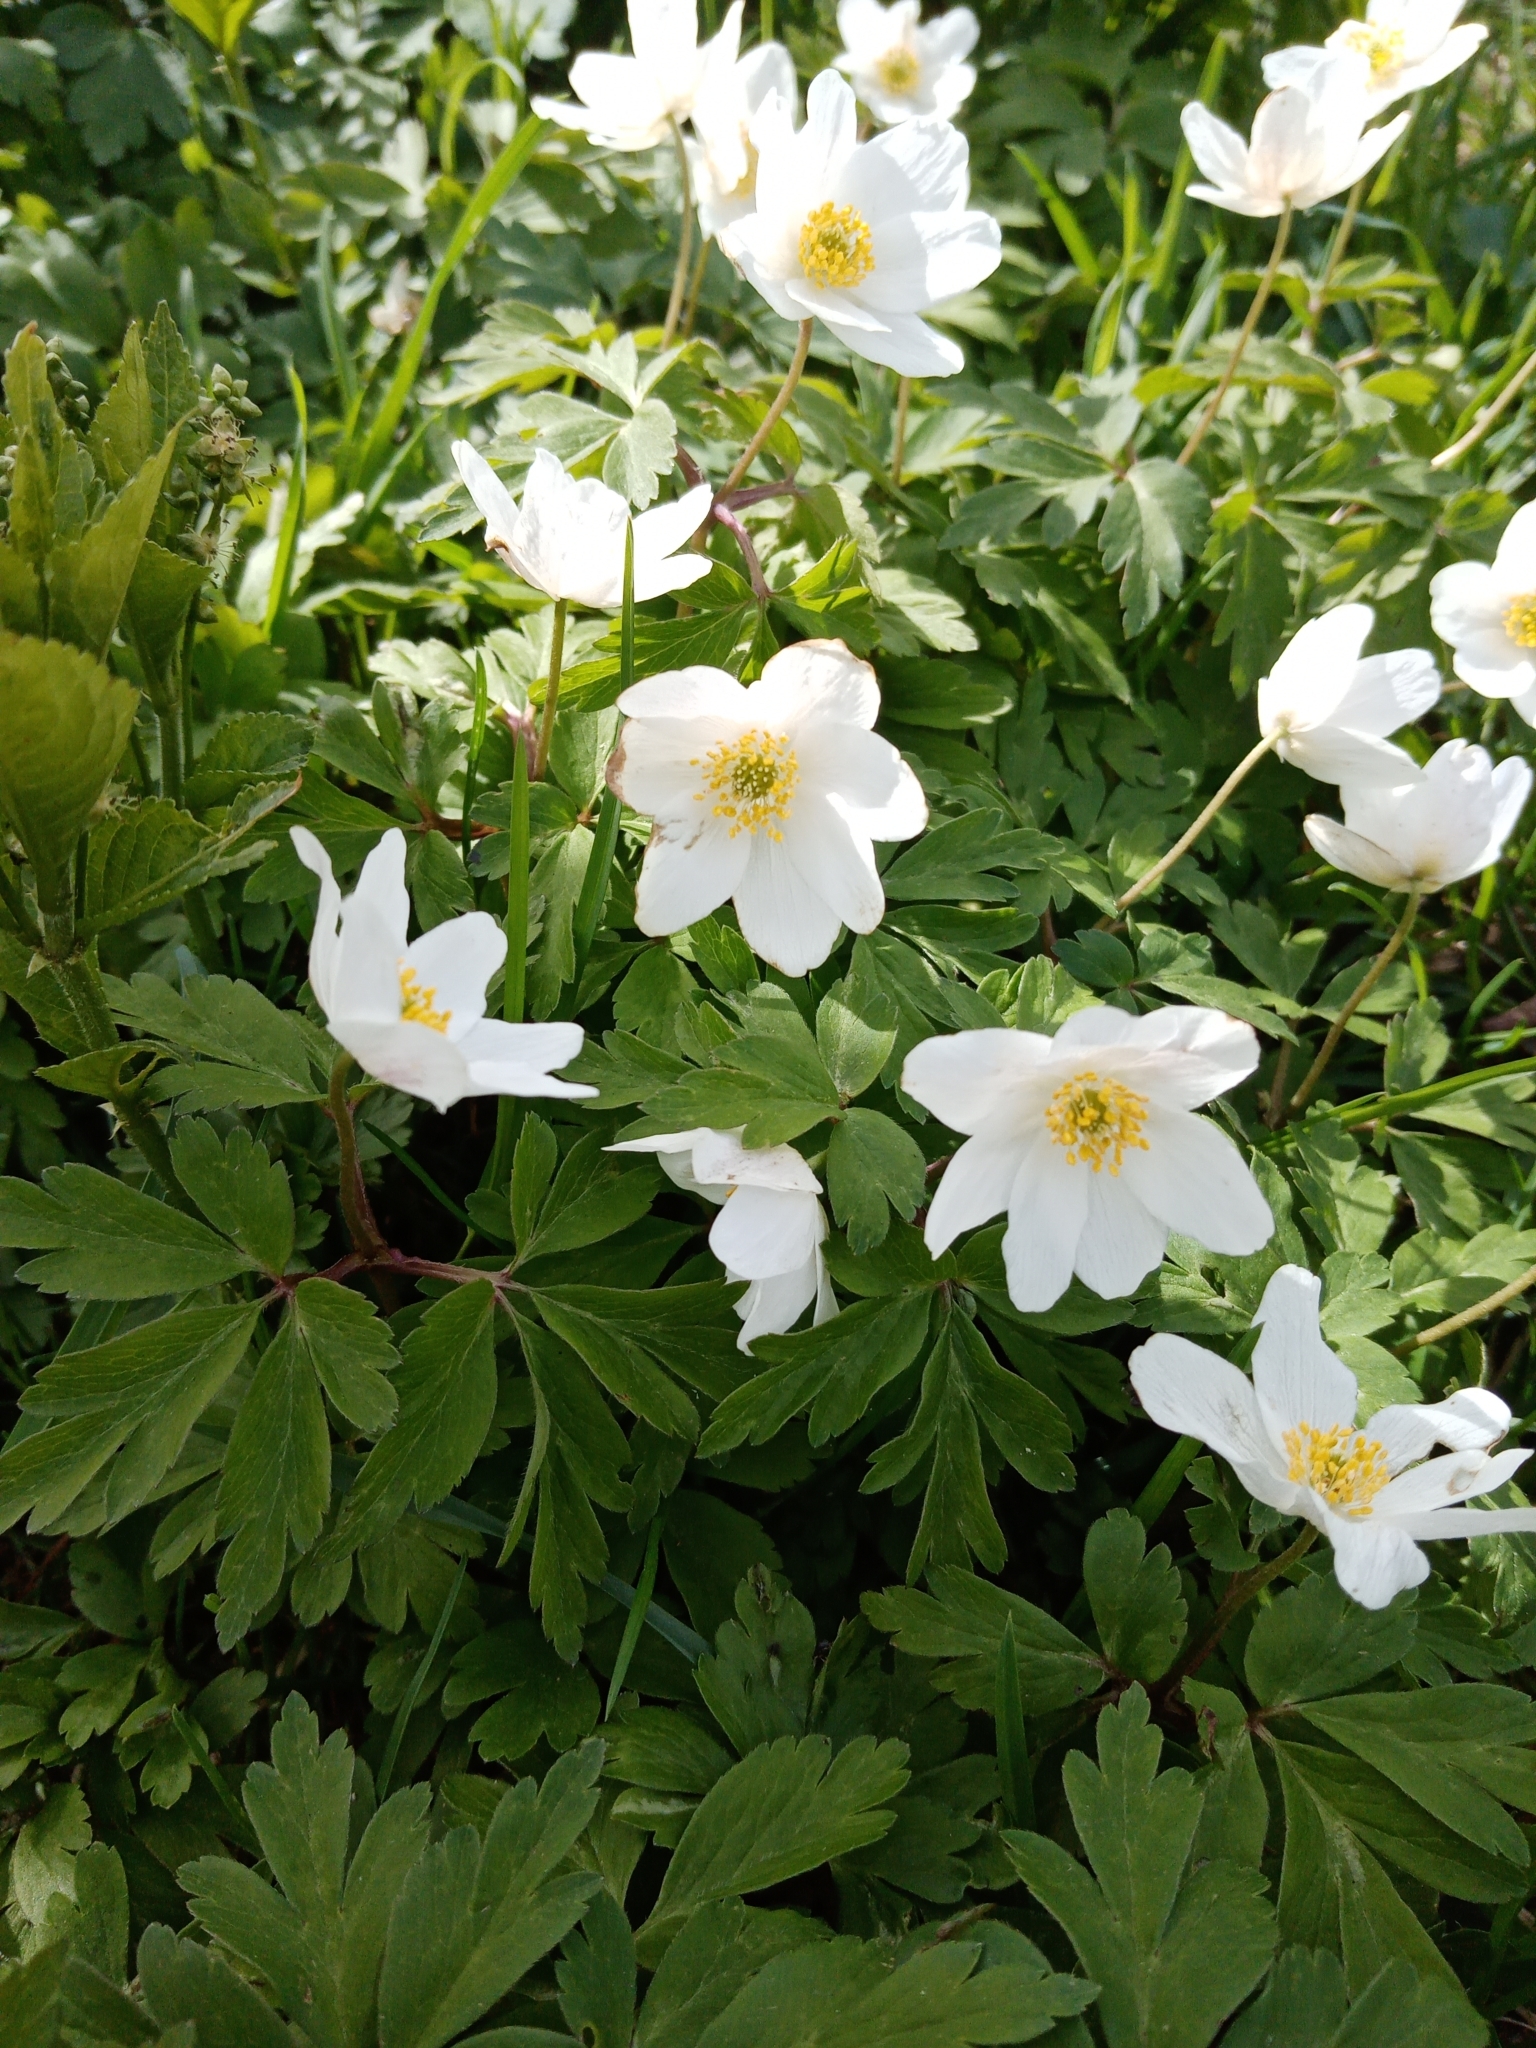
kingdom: Plantae
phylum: Tracheophyta
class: Magnoliopsida
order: Ranunculales
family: Ranunculaceae
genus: Anemone
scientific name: Anemone nemorosa
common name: Wood anemone
